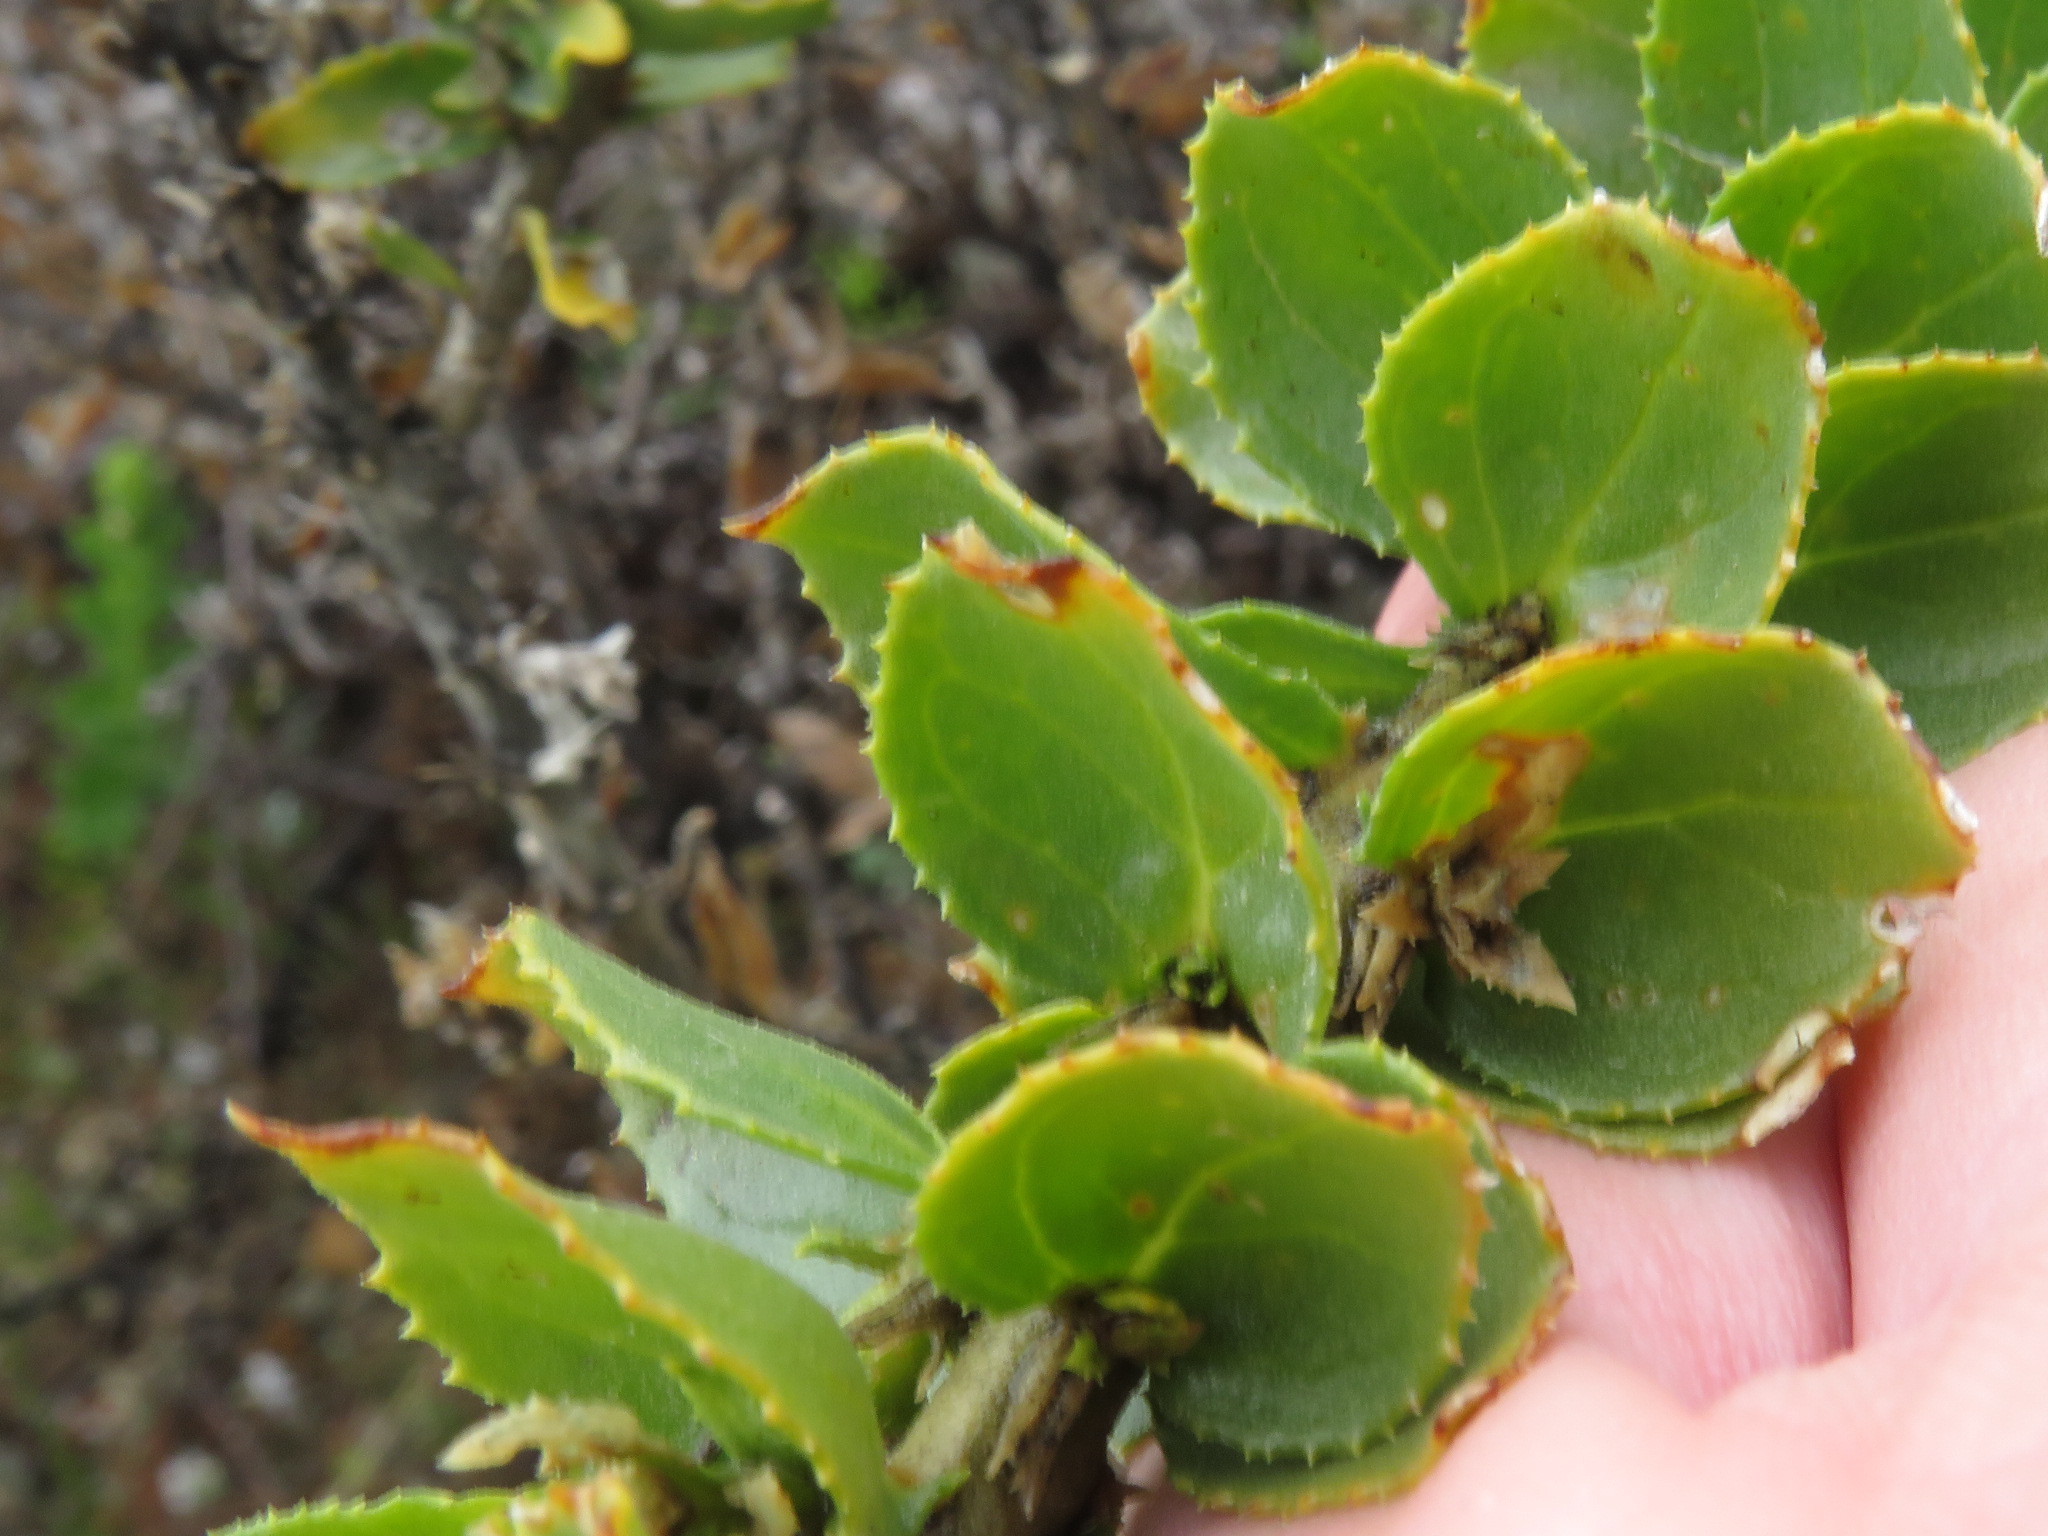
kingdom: Plantae
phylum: Tracheophyta
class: Magnoliopsida
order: Lamiales
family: Scrophulariaceae
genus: Oftia
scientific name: Oftia africana
